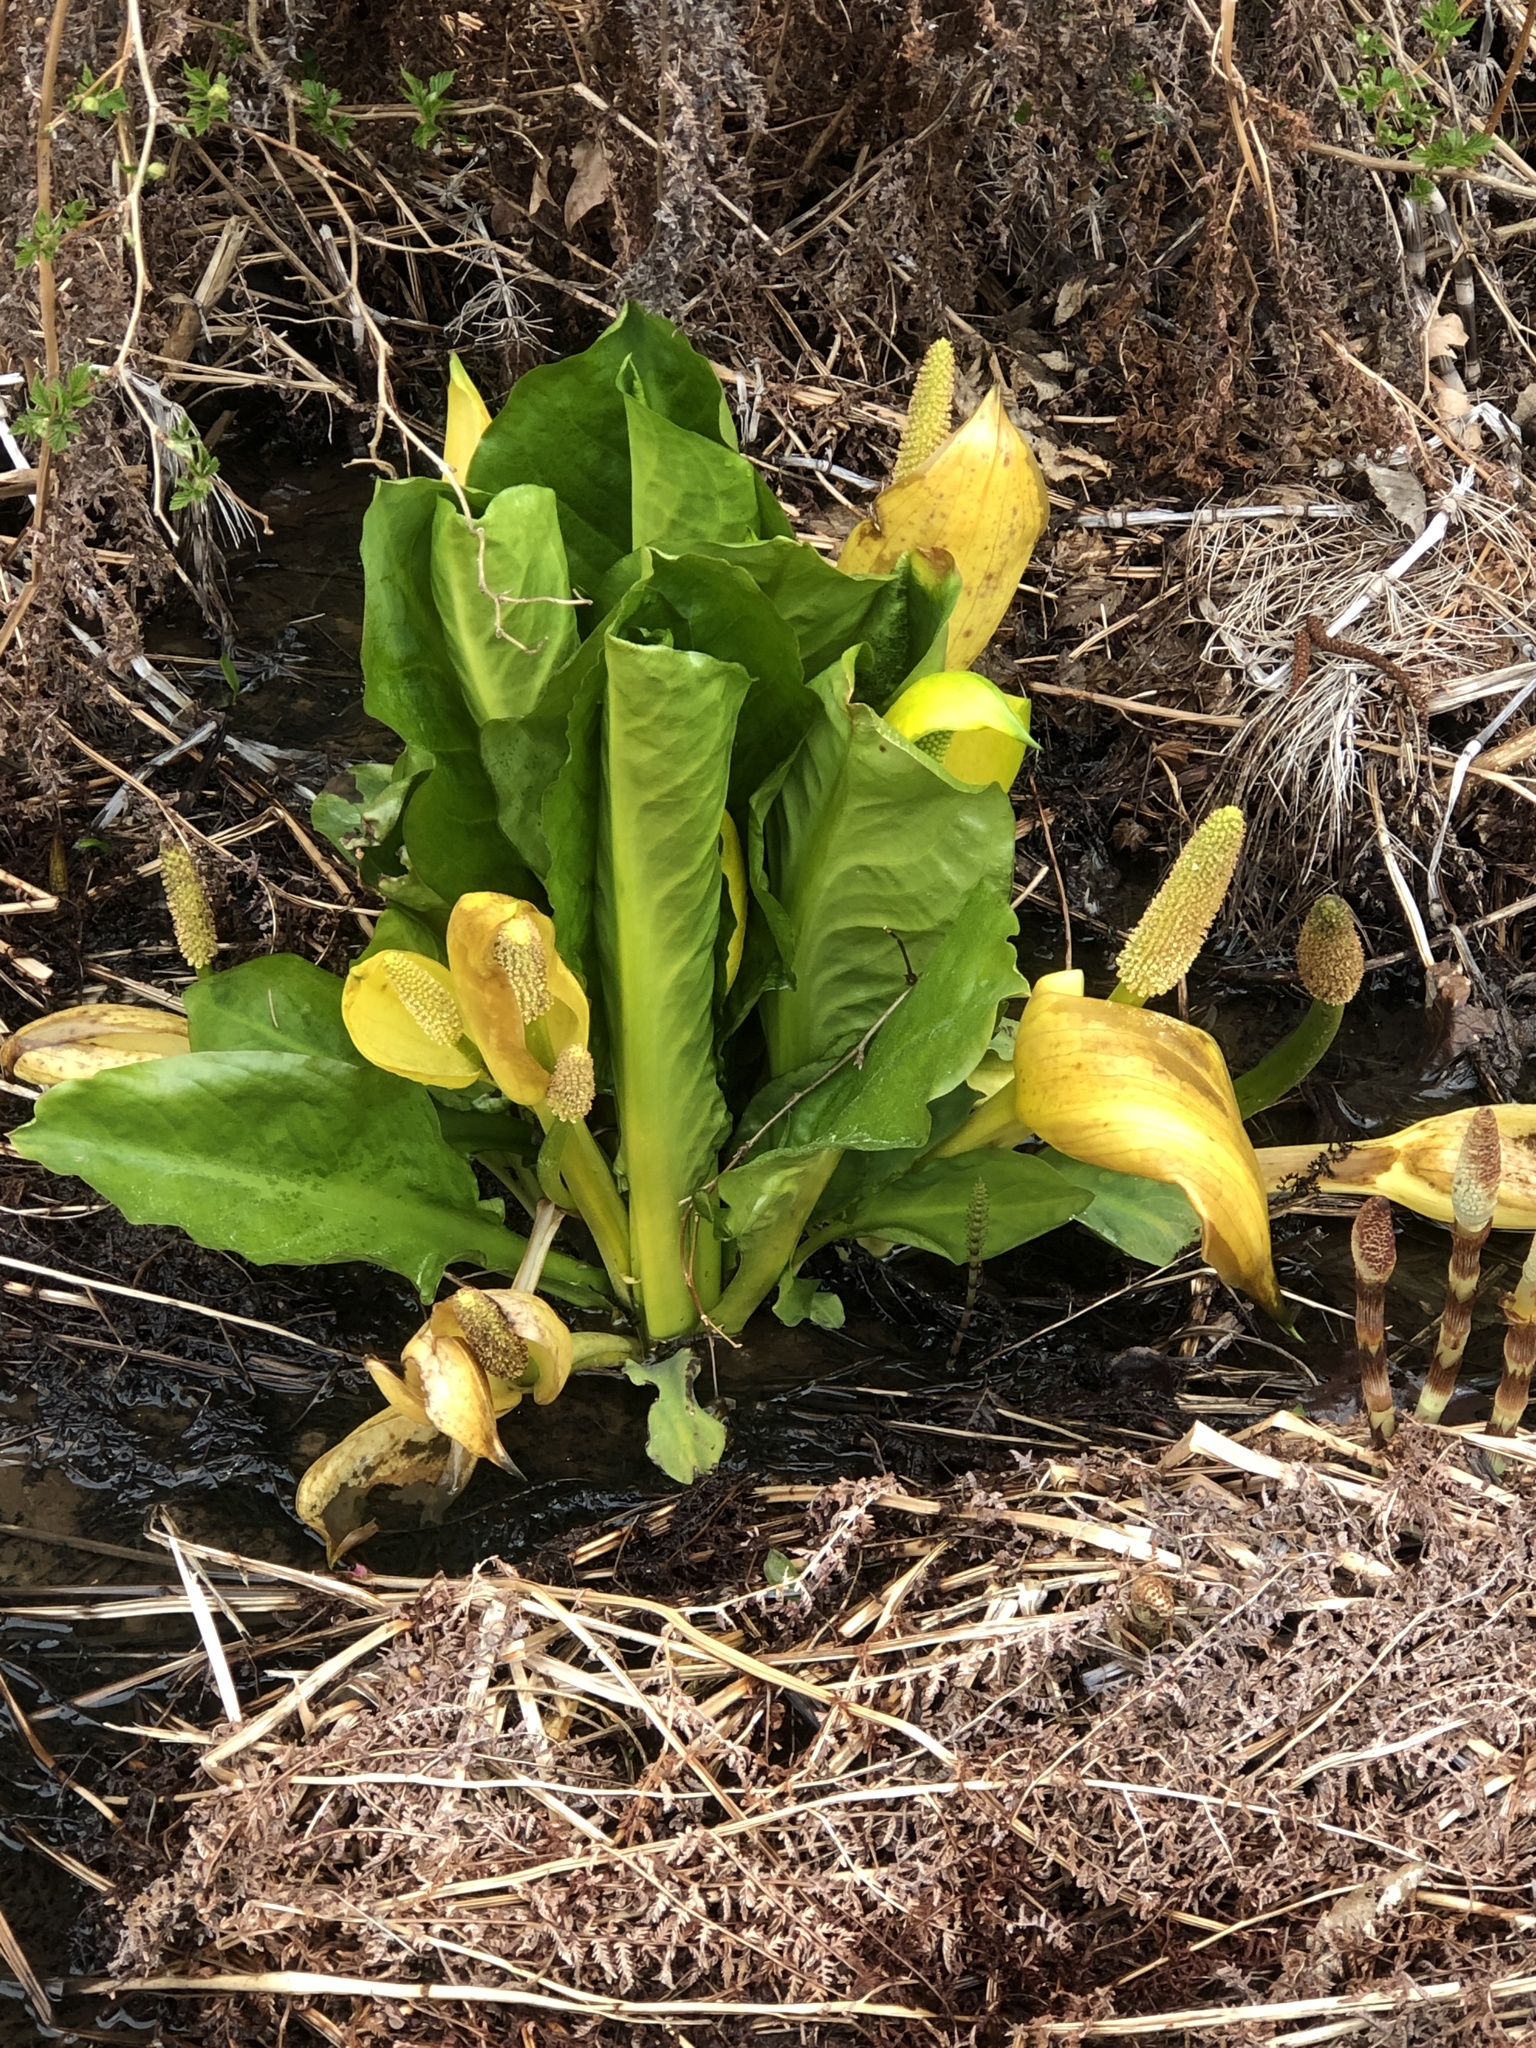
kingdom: Plantae
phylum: Tracheophyta
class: Liliopsida
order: Alismatales
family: Araceae
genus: Lysichiton
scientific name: Lysichiton americanus
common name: American skunk cabbage
